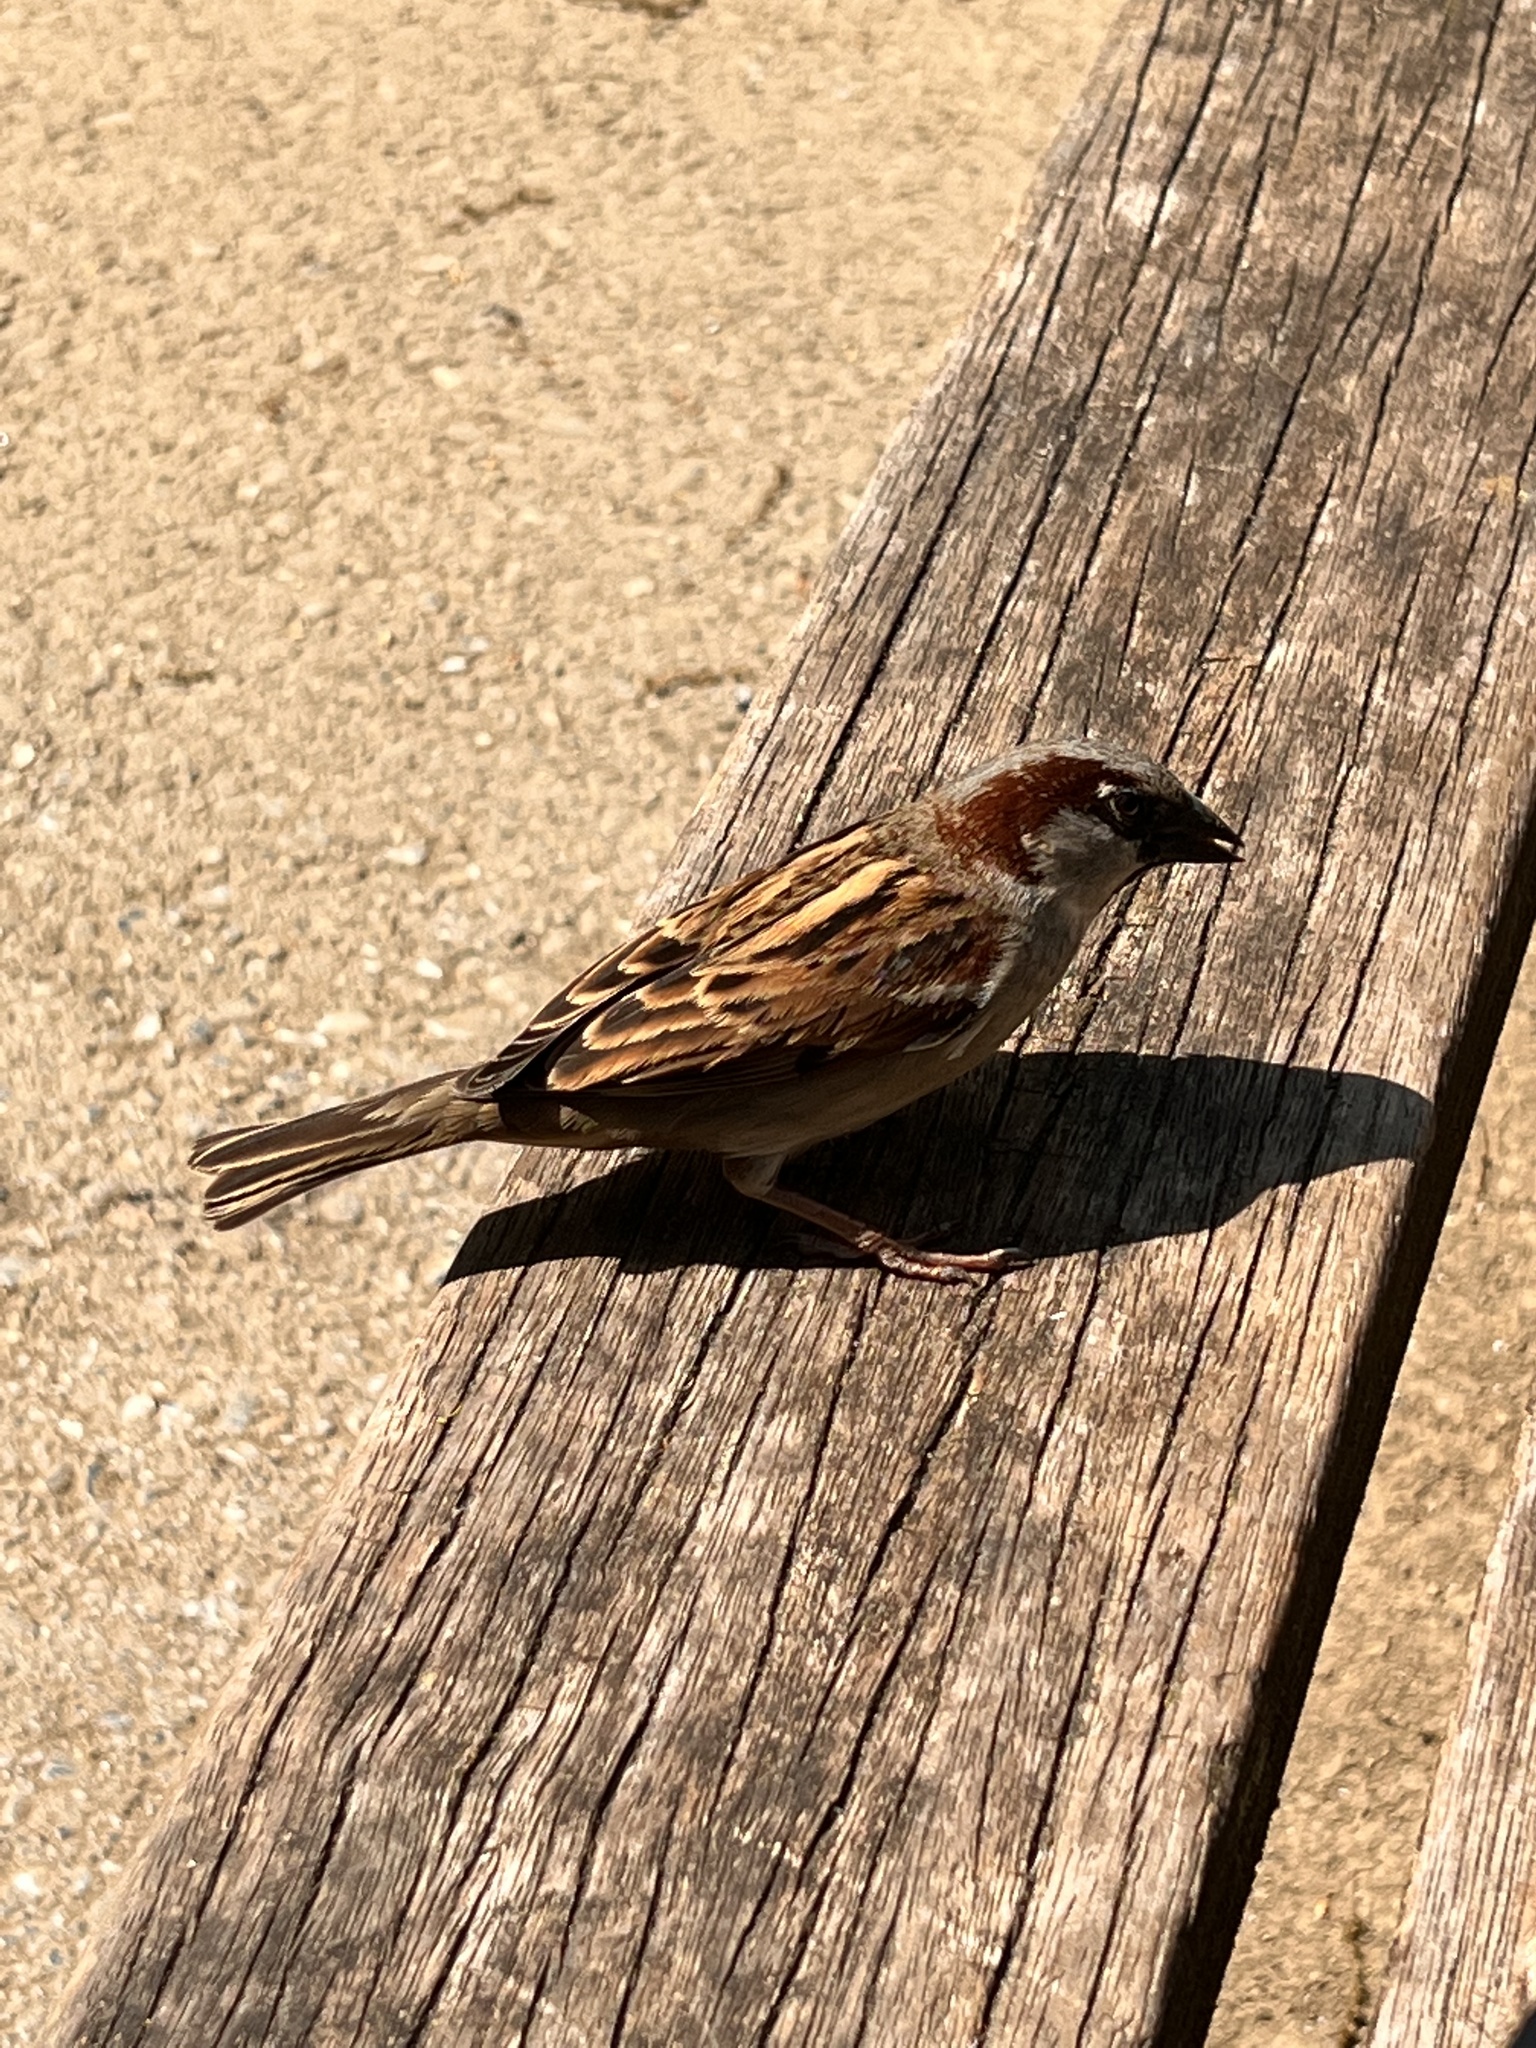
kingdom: Animalia
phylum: Chordata
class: Aves
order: Passeriformes
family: Passeridae
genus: Passer
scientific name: Passer domesticus
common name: House sparrow
